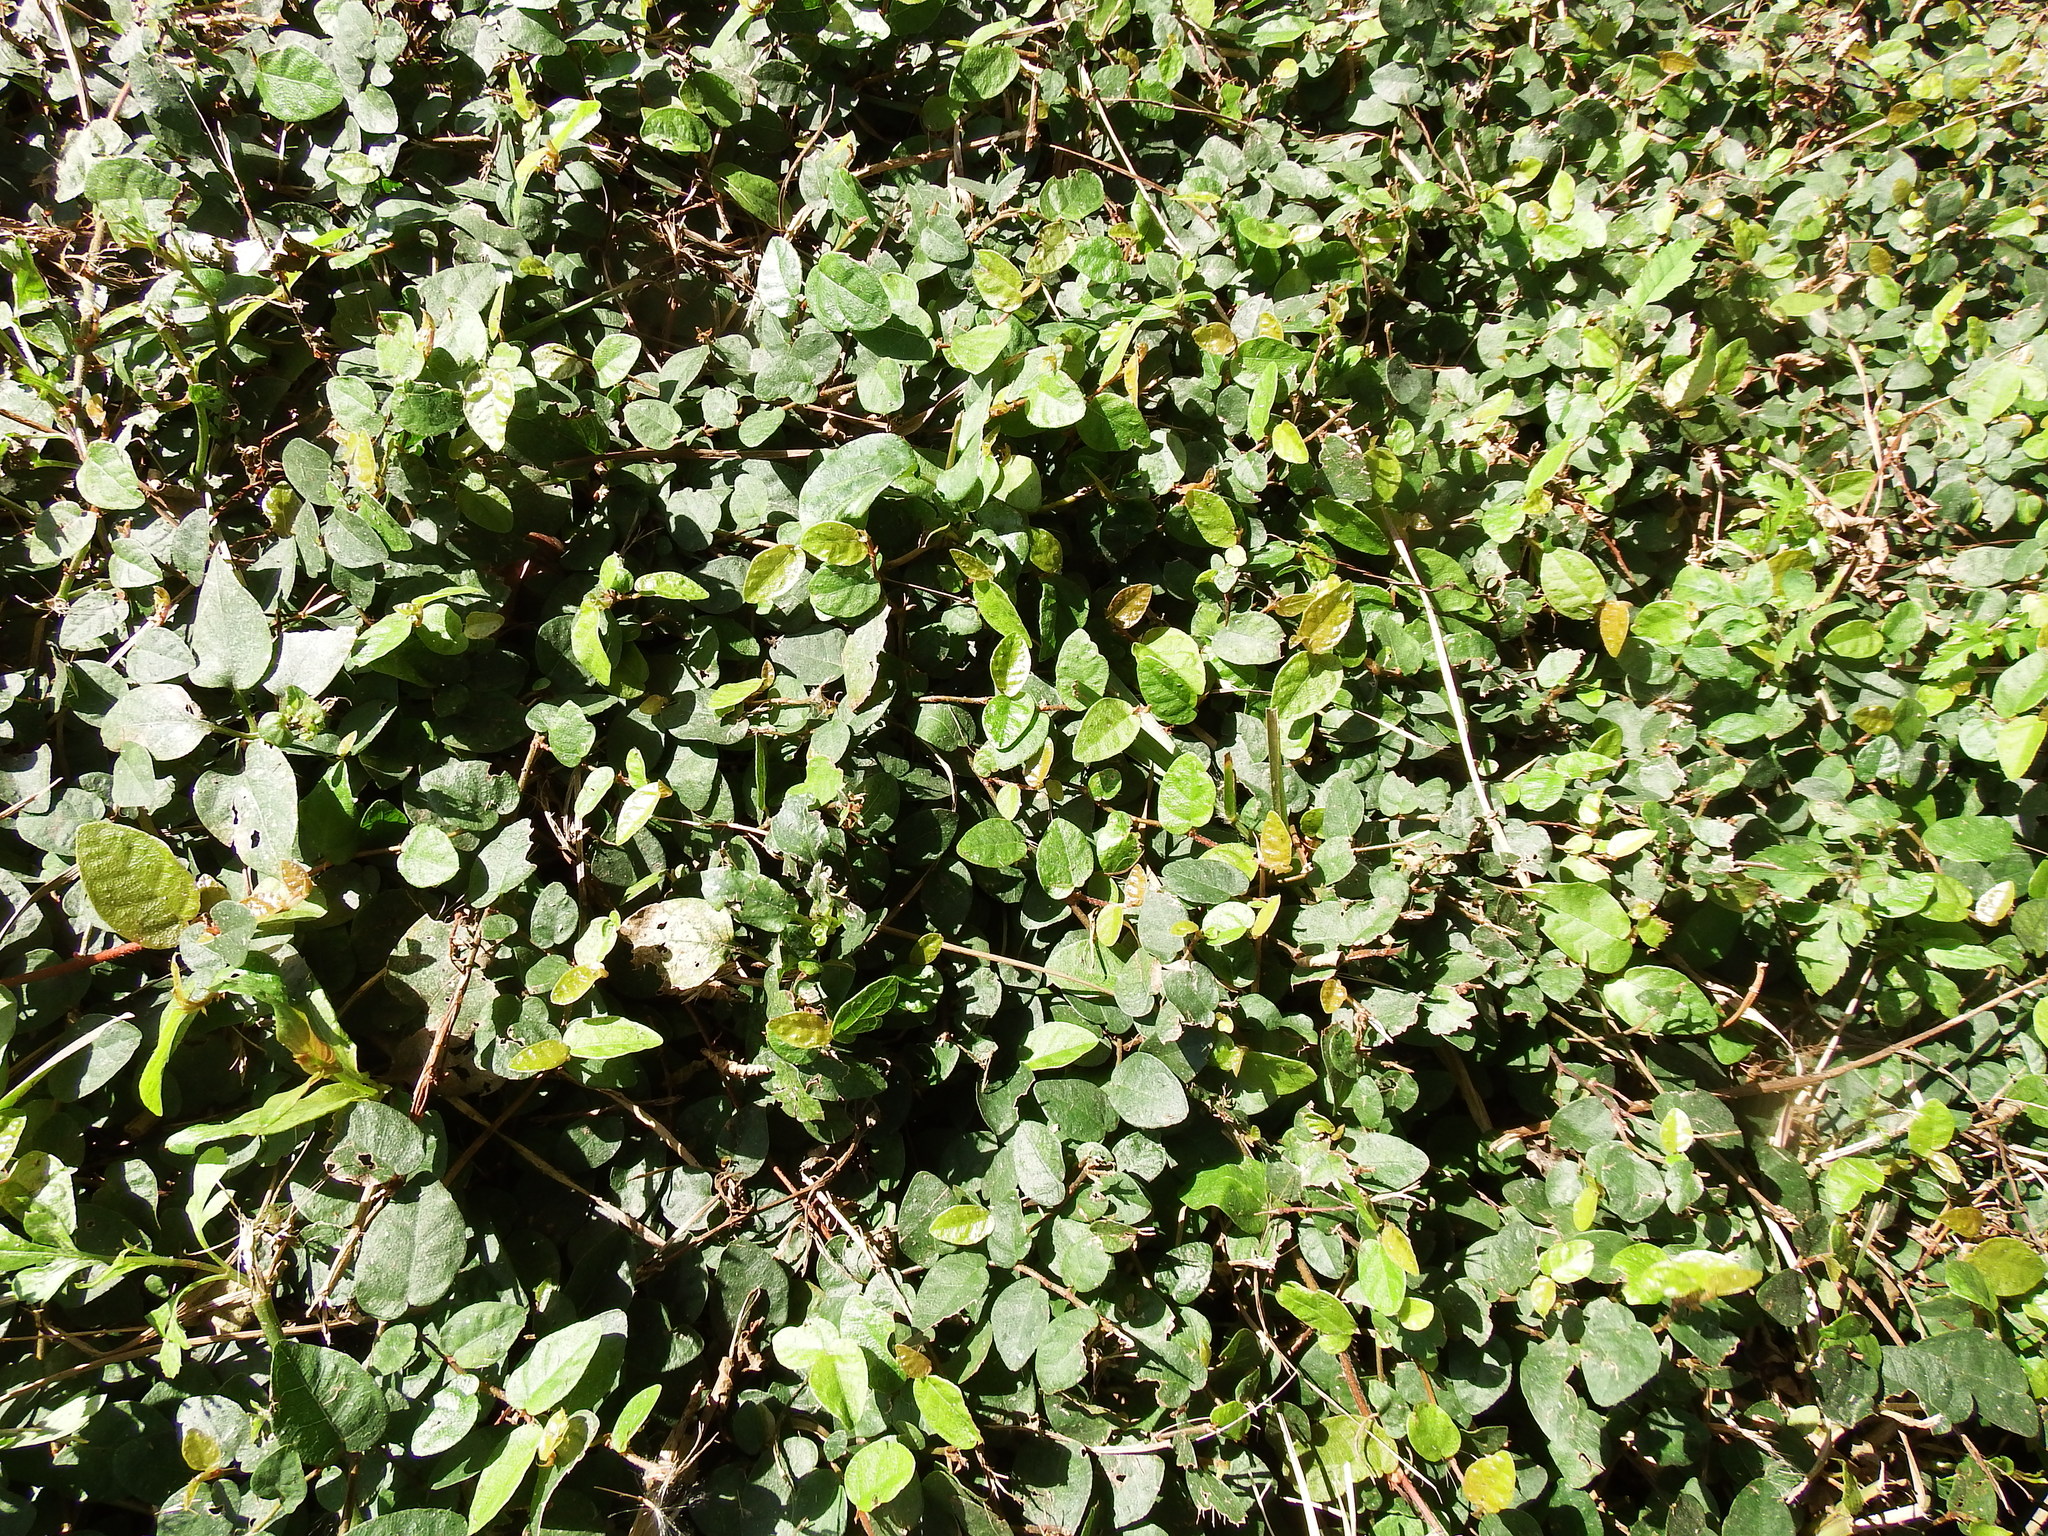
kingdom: Plantae
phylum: Tracheophyta
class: Magnoliopsida
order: Rosales
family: Moraceae
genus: Ficus
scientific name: Ficus pumila
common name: Climbingfig
